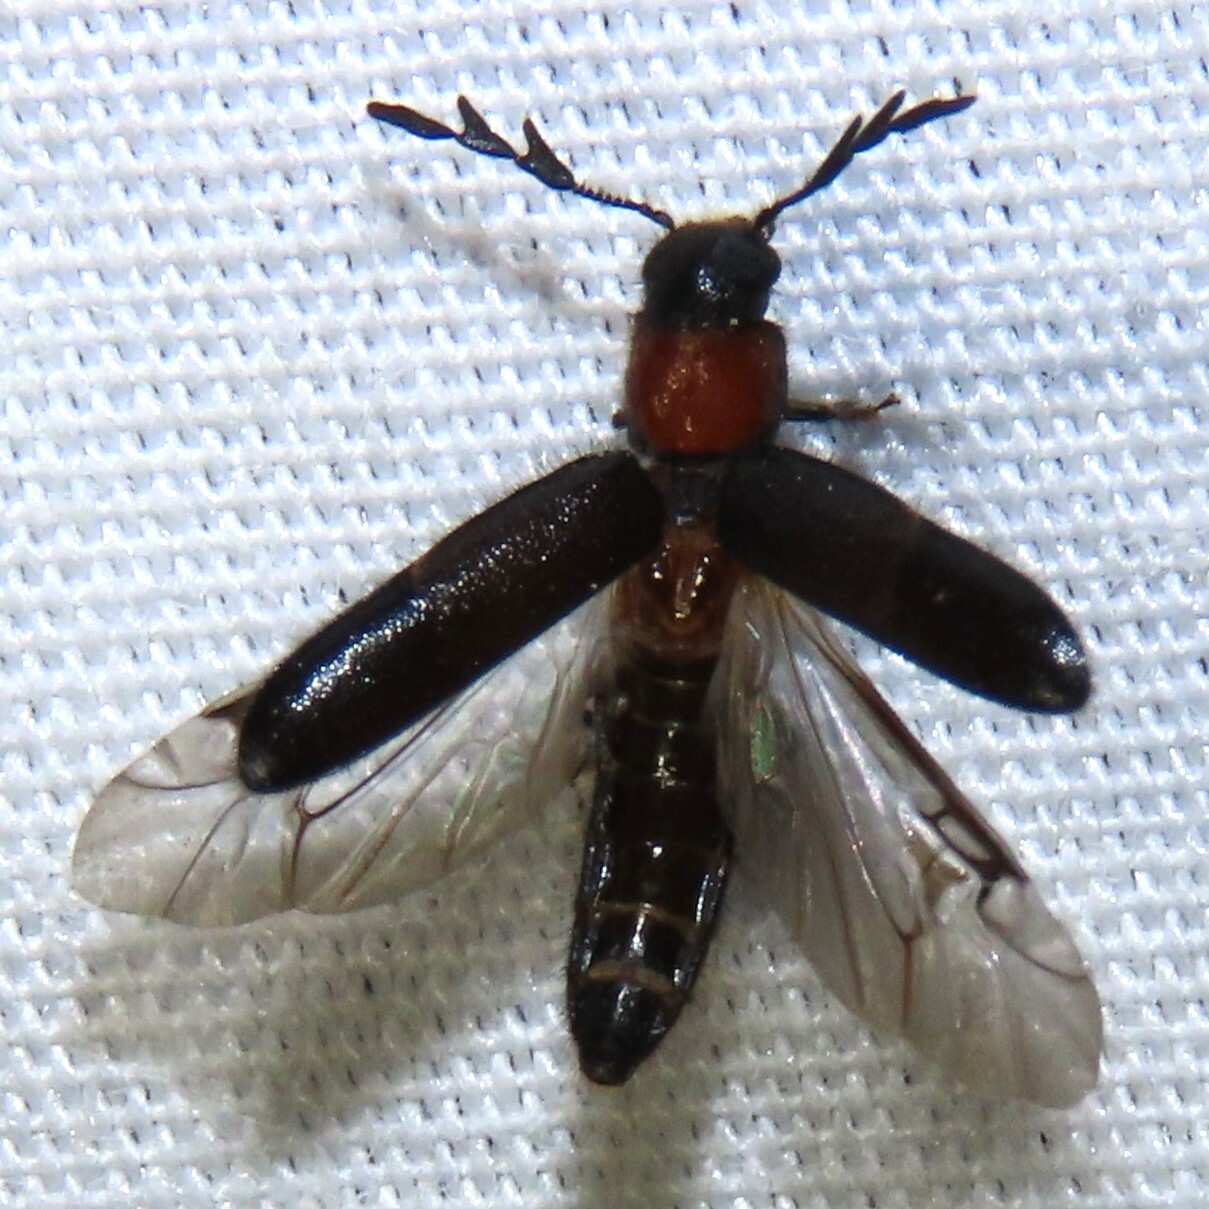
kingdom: Animalia
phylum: Arthropoda
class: Insecta
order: Coleoptera
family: Cleridae
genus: Neorthopleura
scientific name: Neorthopleura thoracica
